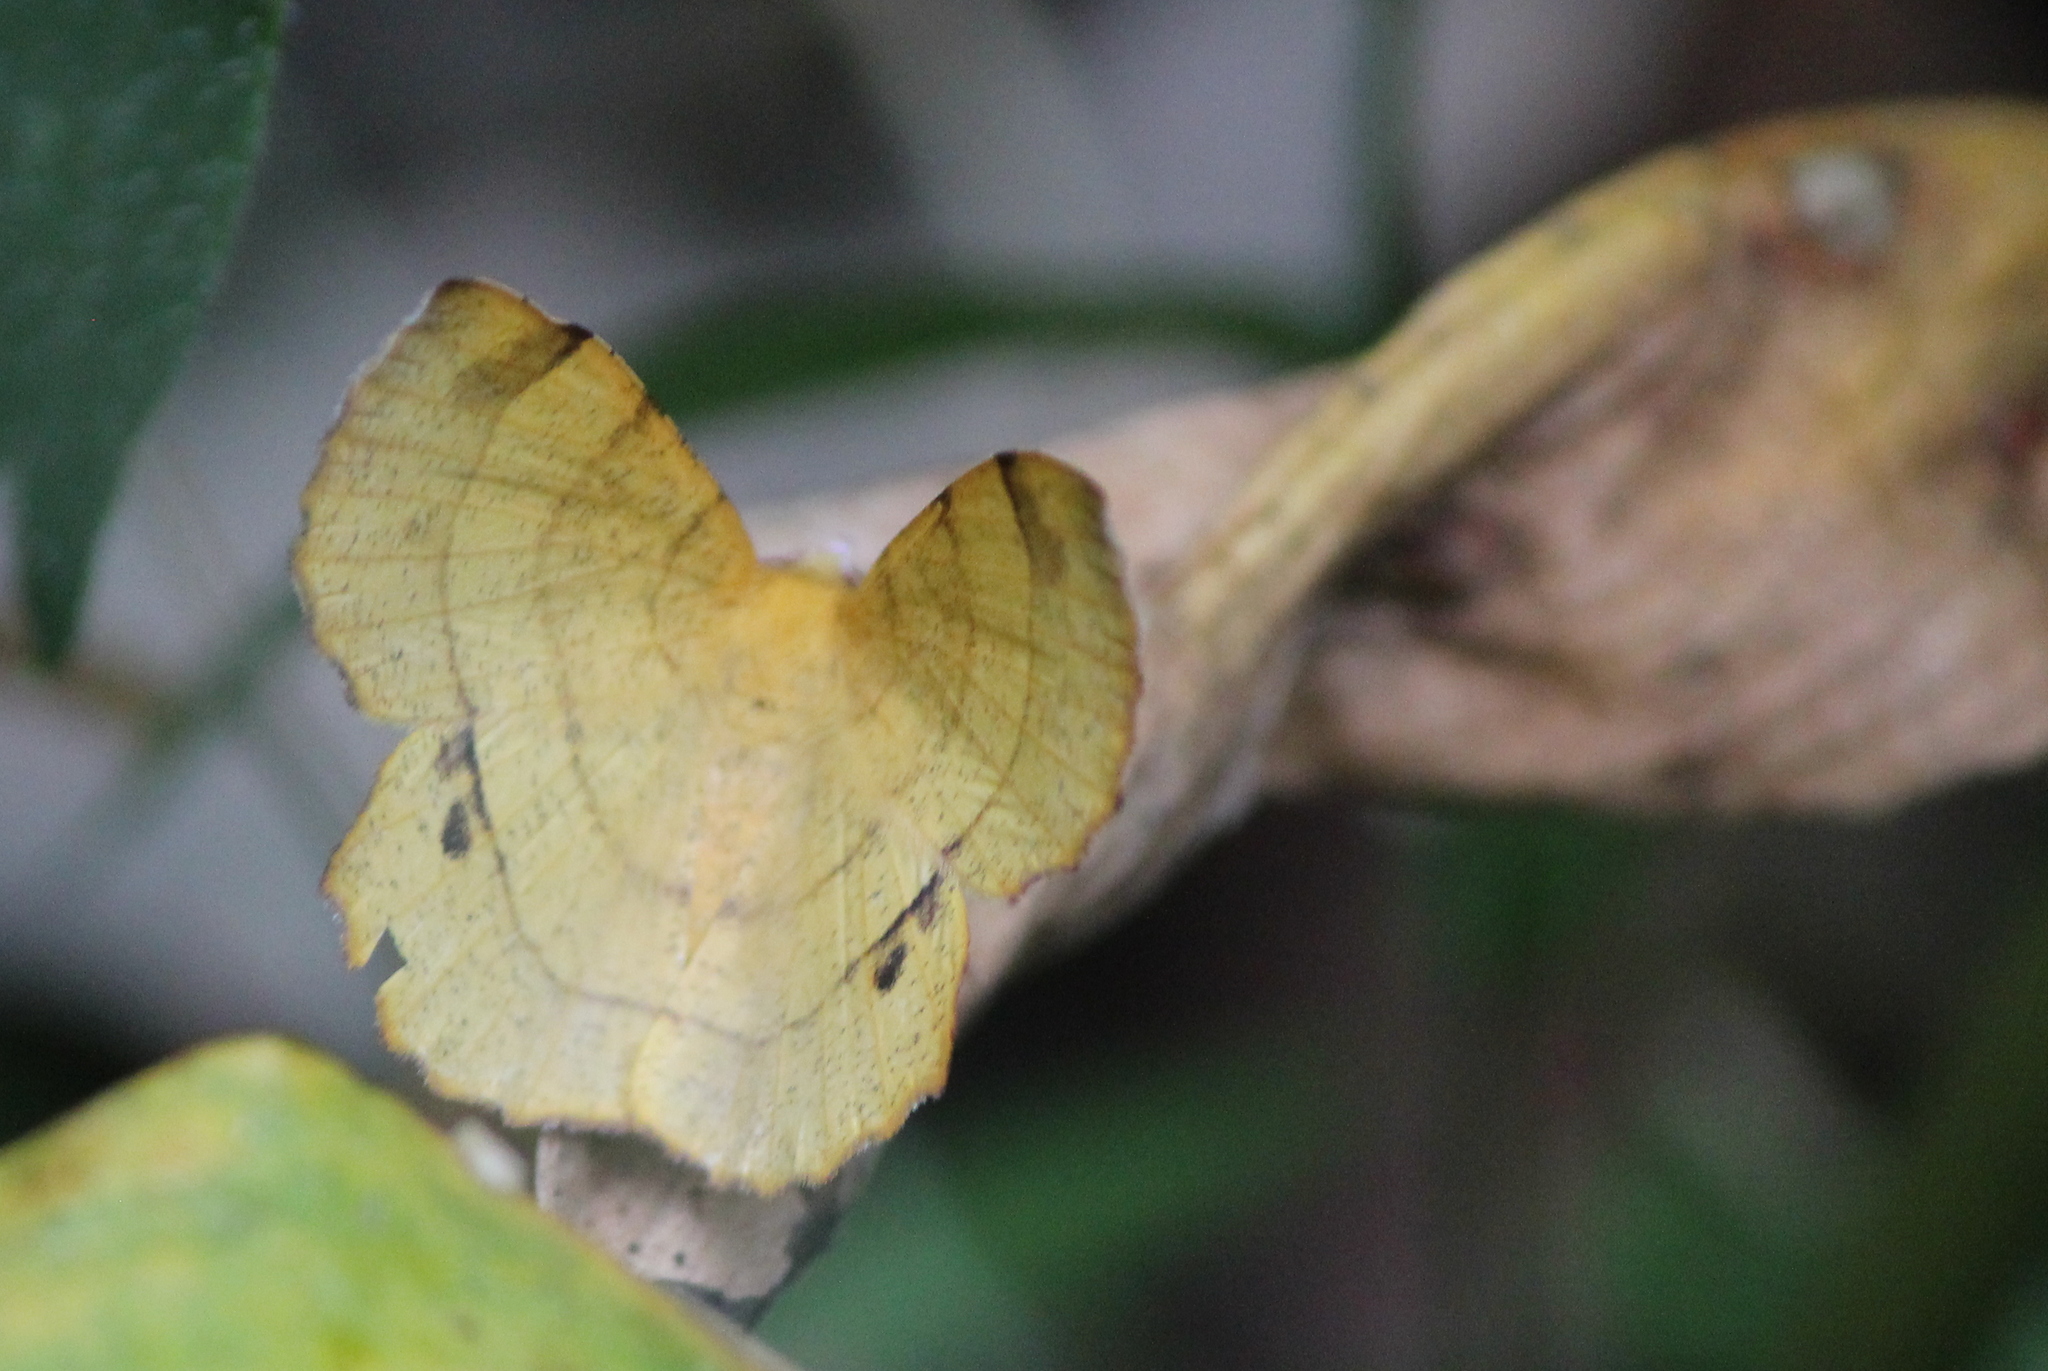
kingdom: Animalia
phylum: Arthropoda
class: Insecta
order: Lepidoptera
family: Geometridae
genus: Hyperythra
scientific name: Hyperythra lutea
